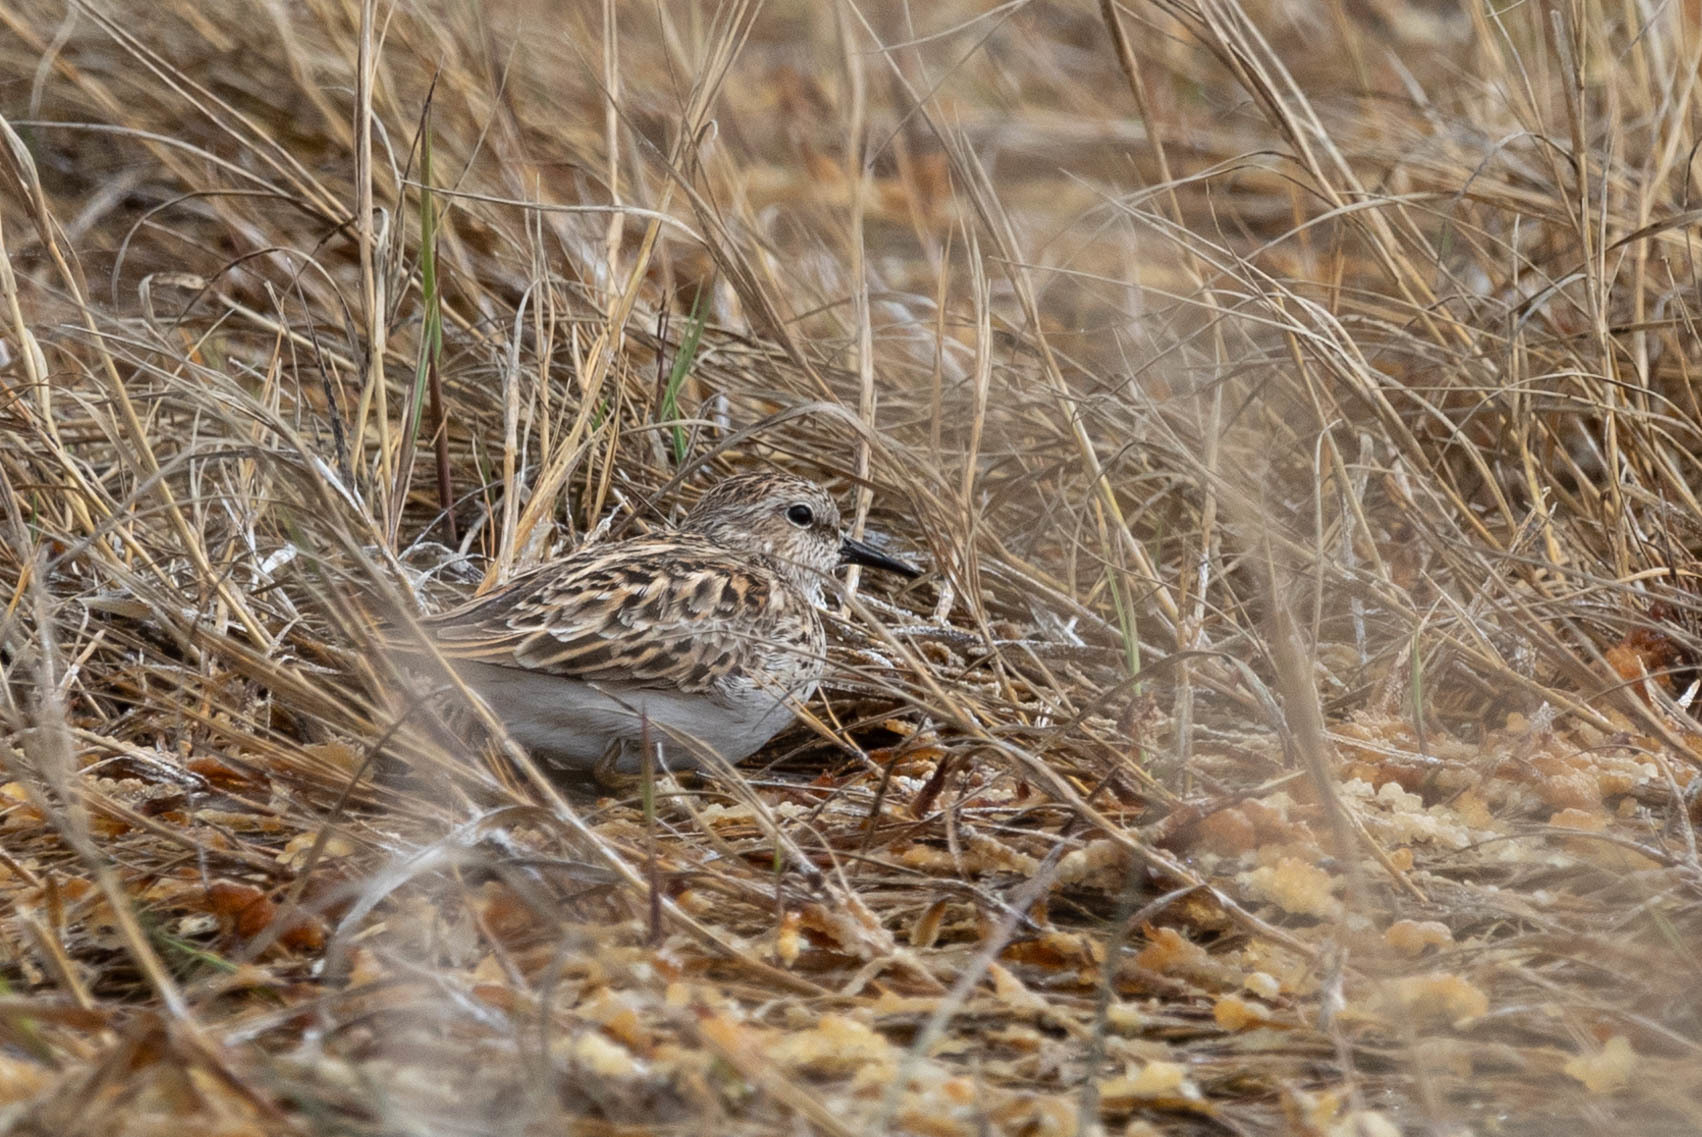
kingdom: Animalia
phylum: Chordata
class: Aves
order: Charadriiformes
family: Scolopacidae
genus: Calidris
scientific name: Calidris minutilla
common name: Least sandpiper
